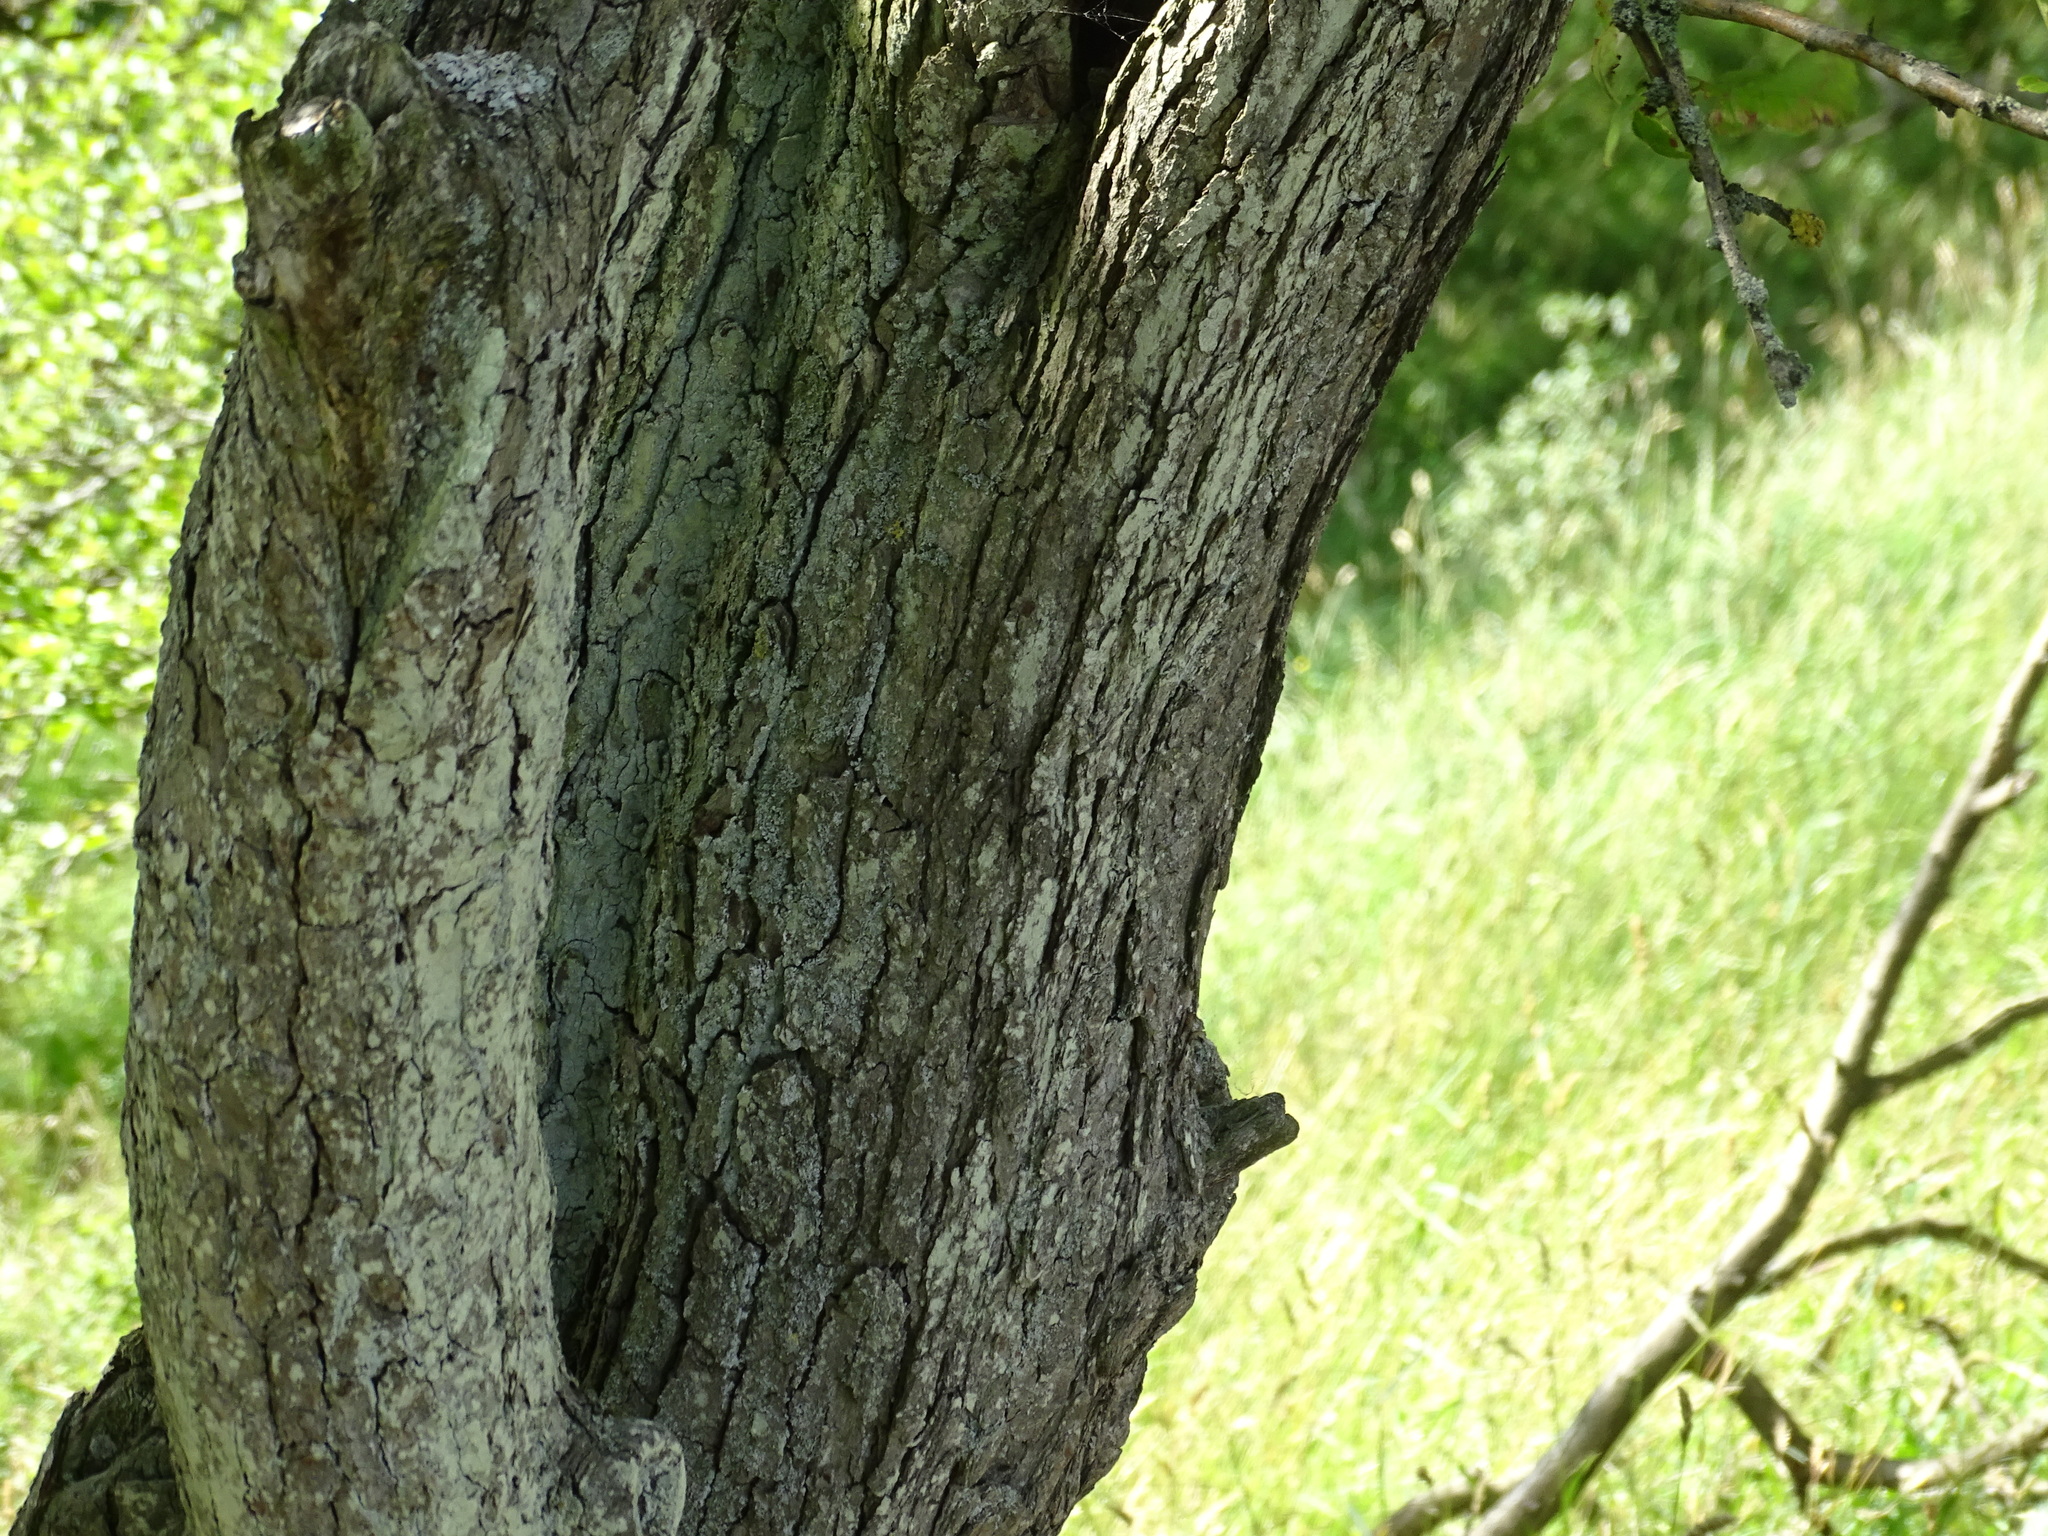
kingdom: Plantae
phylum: Tracheophyta
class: Magnoliopsida
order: Rosales
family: Rosaceae
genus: Crataegus
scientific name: Crataegus laevigata
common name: Midland hawthorn
